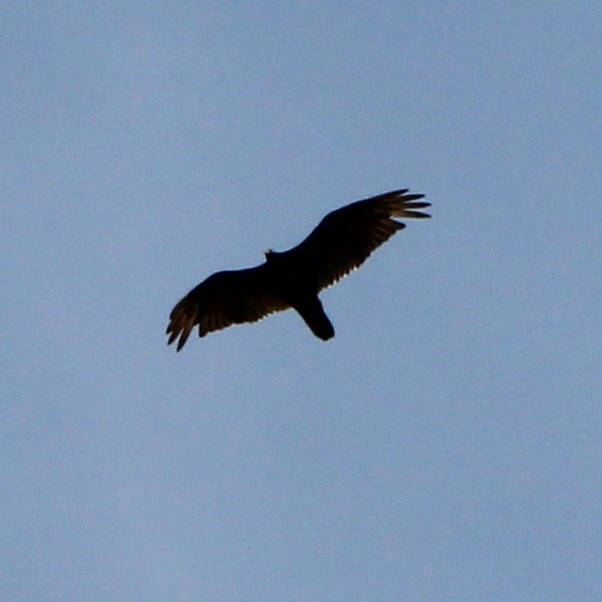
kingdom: Animalia
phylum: Chordata
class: Aves
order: Accipitriformes
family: Cathartidae
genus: Cathartes
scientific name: Cathartes aura
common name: Turkey vulture
